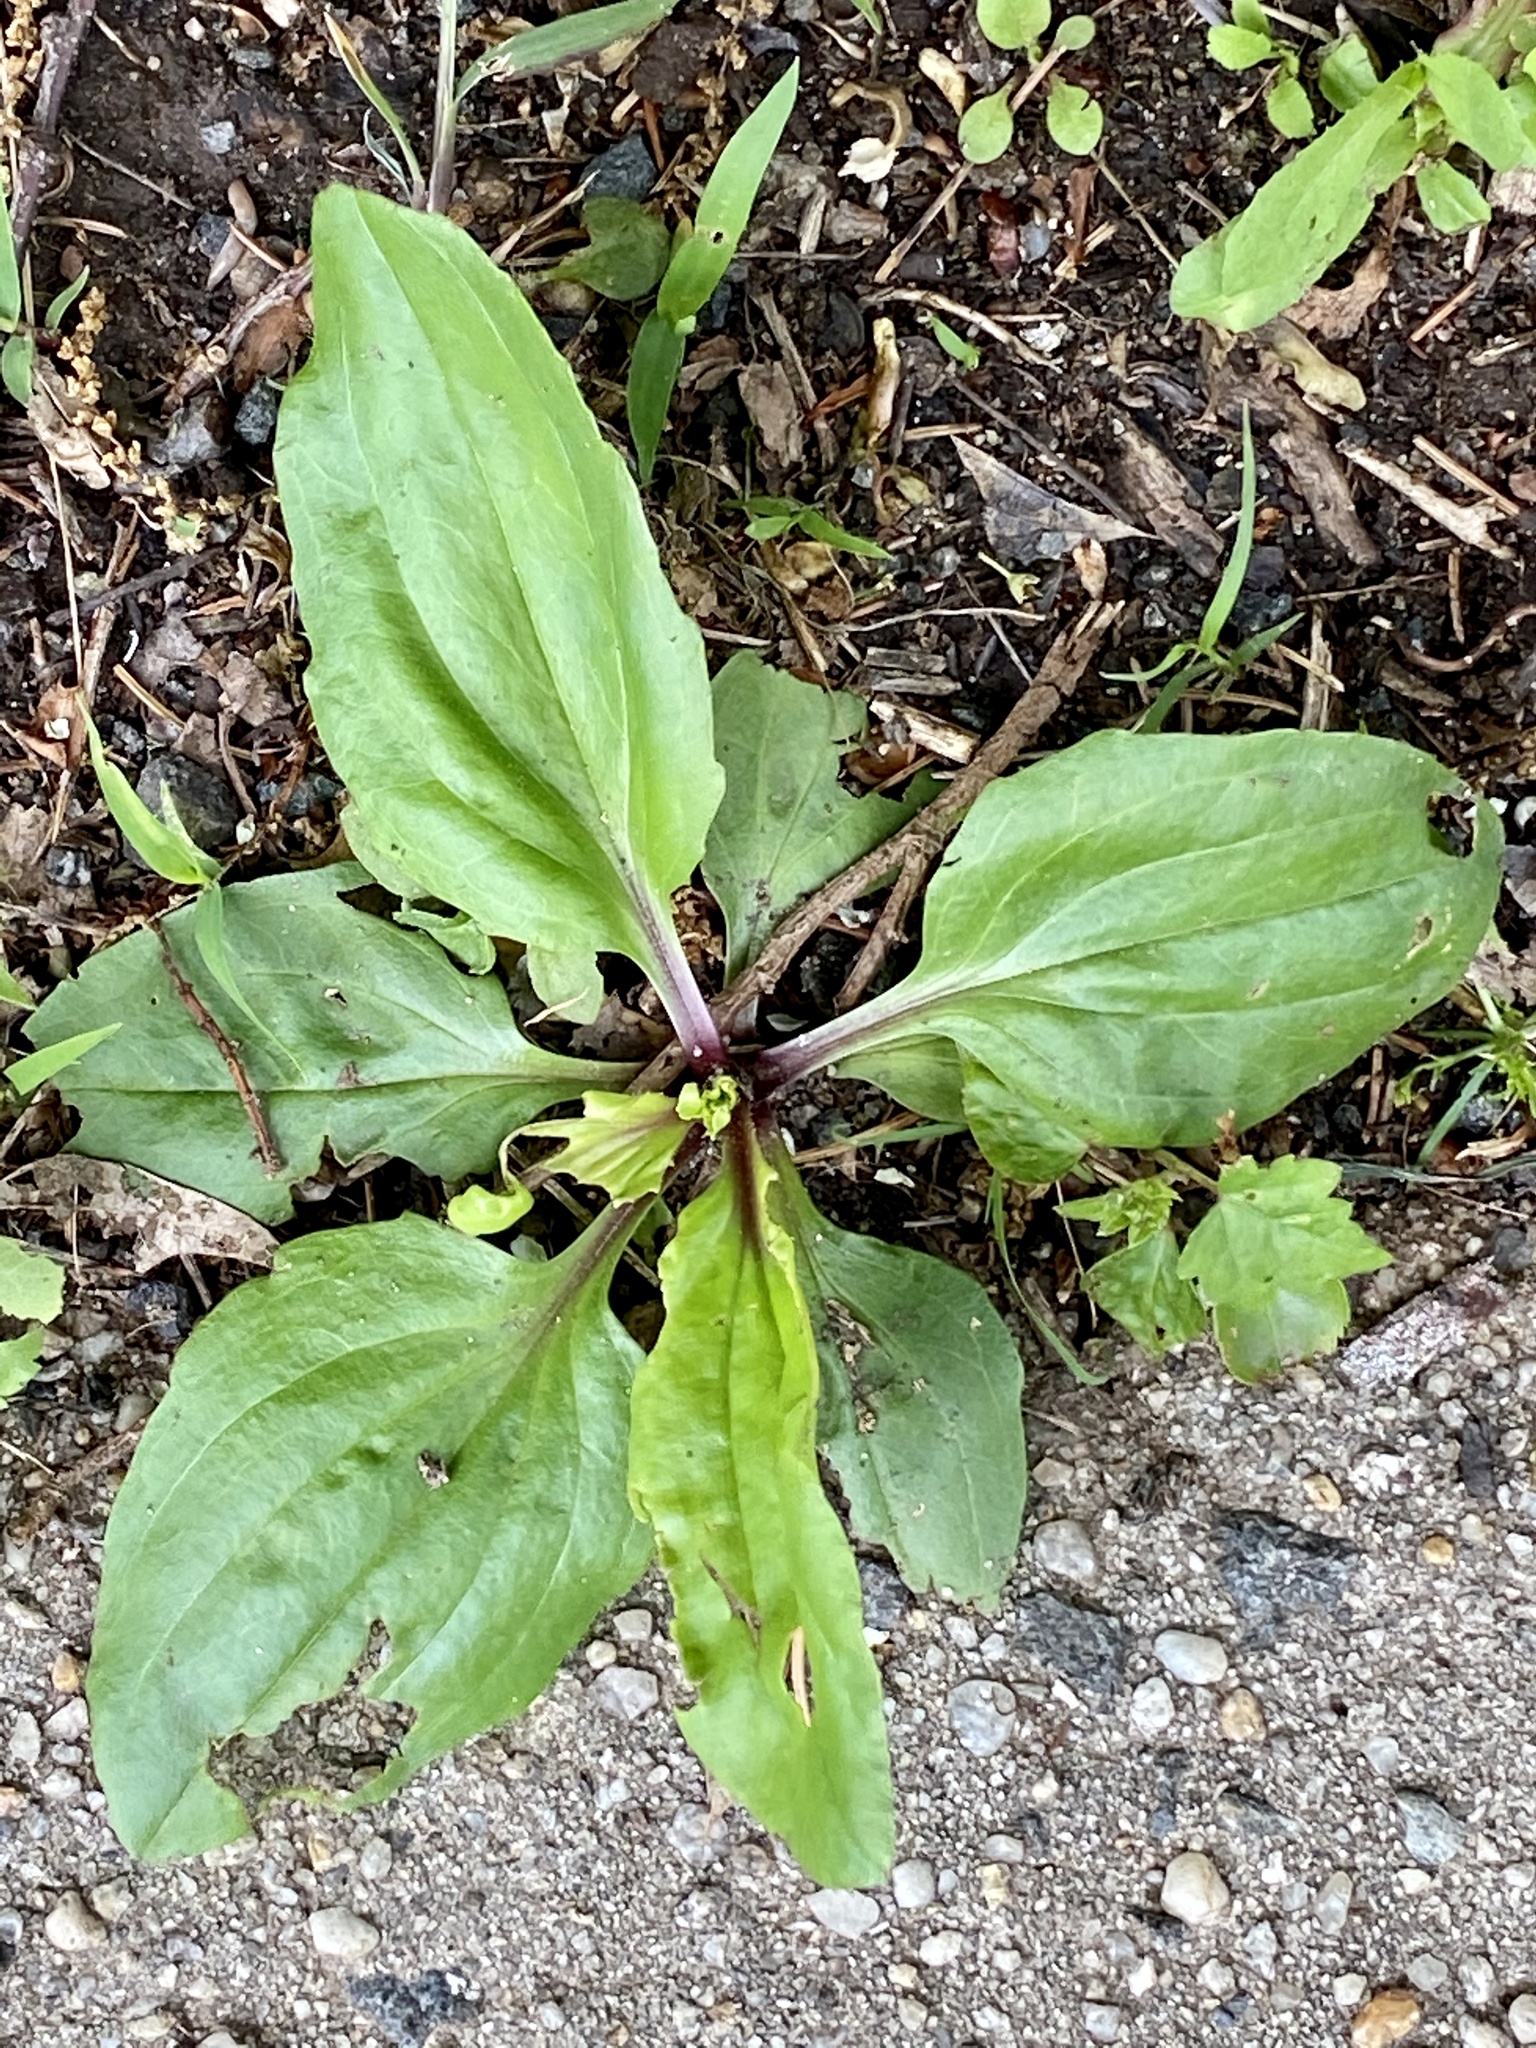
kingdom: Plantae
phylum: Tracheophyta
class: Magnoliopsida
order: Lamiales
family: Plantaginaceae
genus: Plantago
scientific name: Plantago rugelii
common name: American plantain
